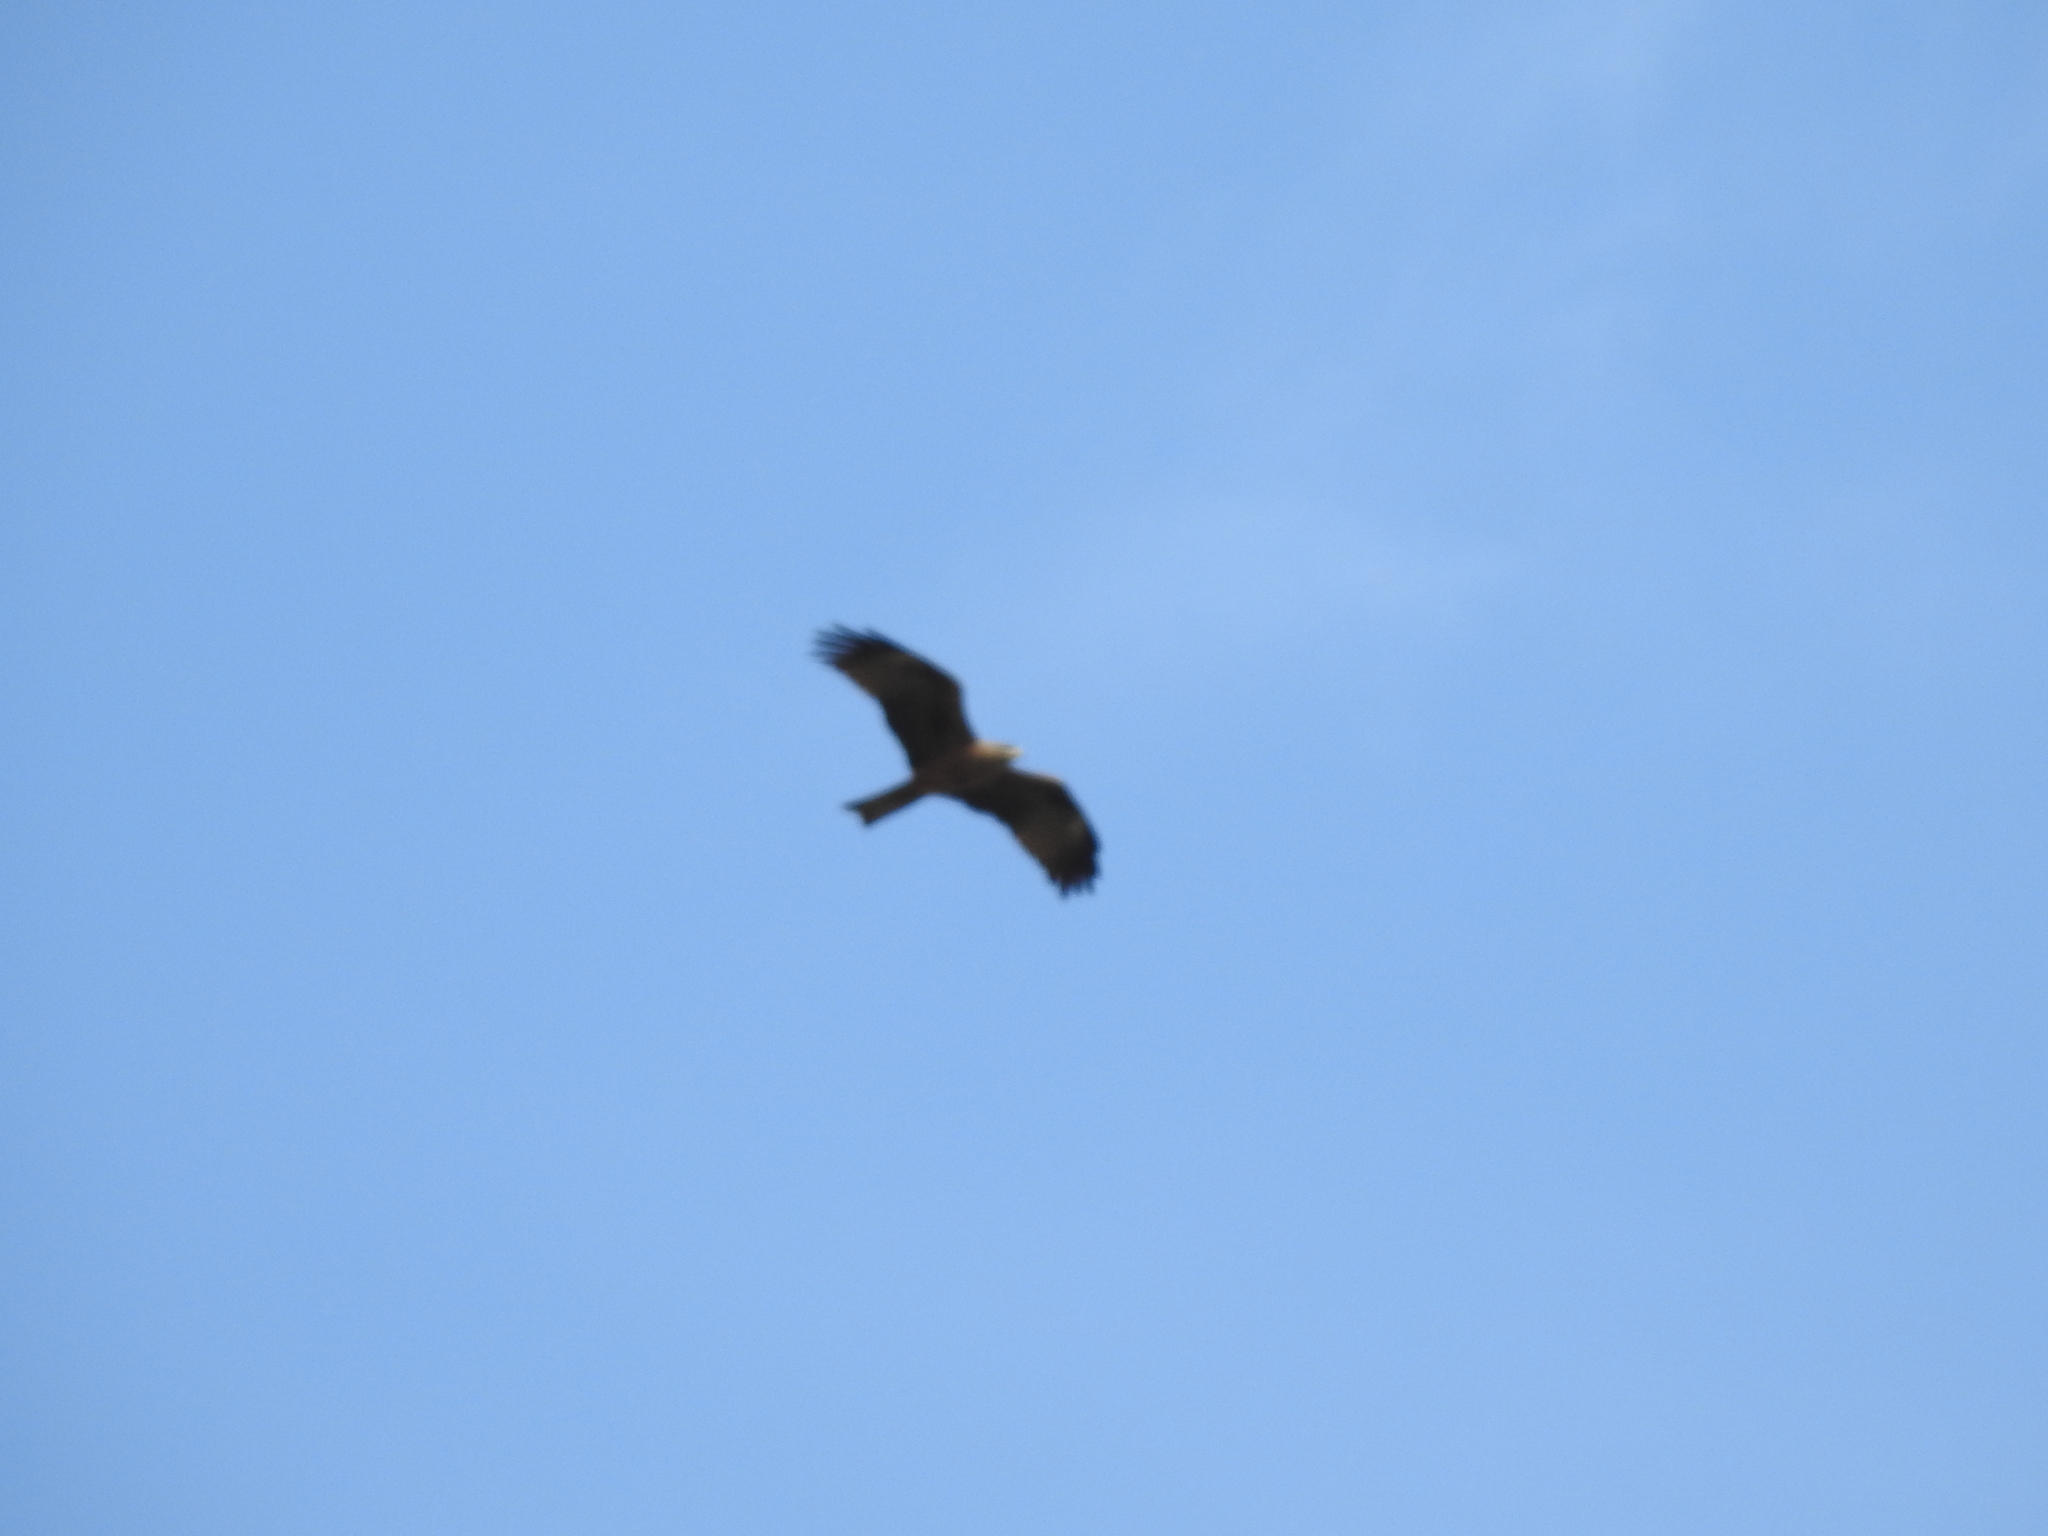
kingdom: Animalia
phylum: Chordata
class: Aves
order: Accipitriformes
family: Accipitridae
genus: Milvus
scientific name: Milvus migrans
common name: Black kite
